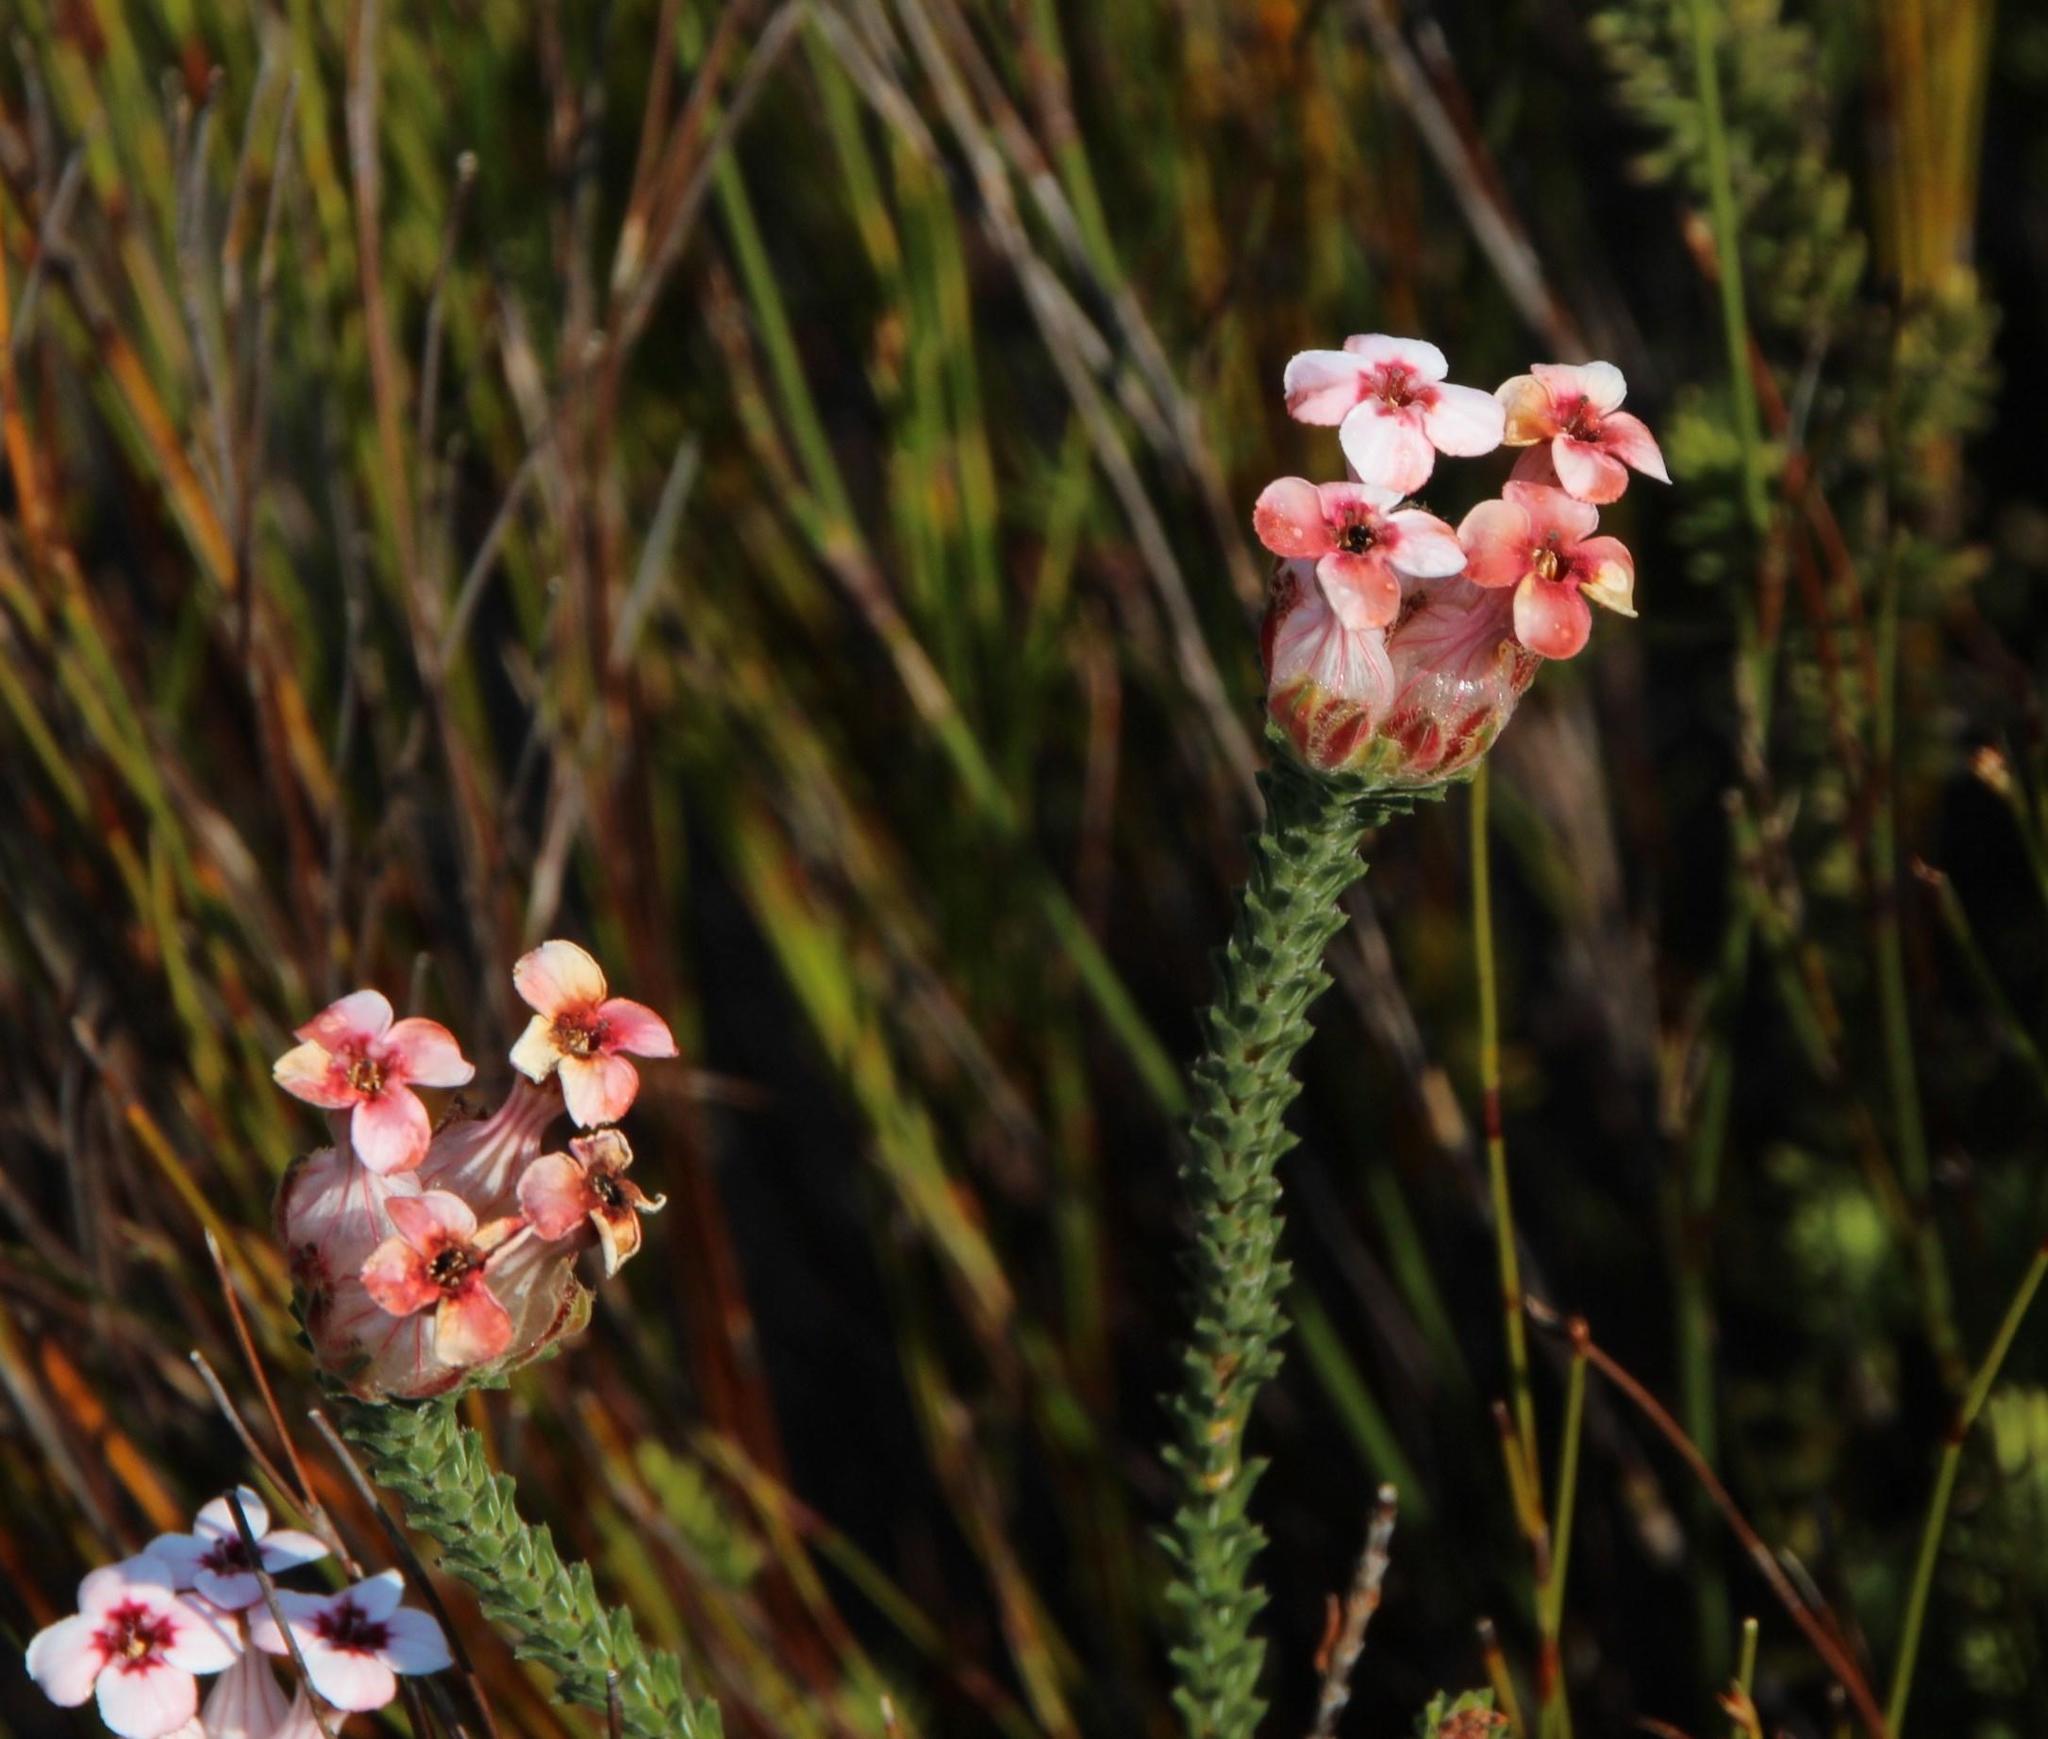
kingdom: Plantae
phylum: Tracheophyta
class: Magnoliopsida
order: Ericales
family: Ericaceae
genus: Erica
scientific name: Erica ampullacea
